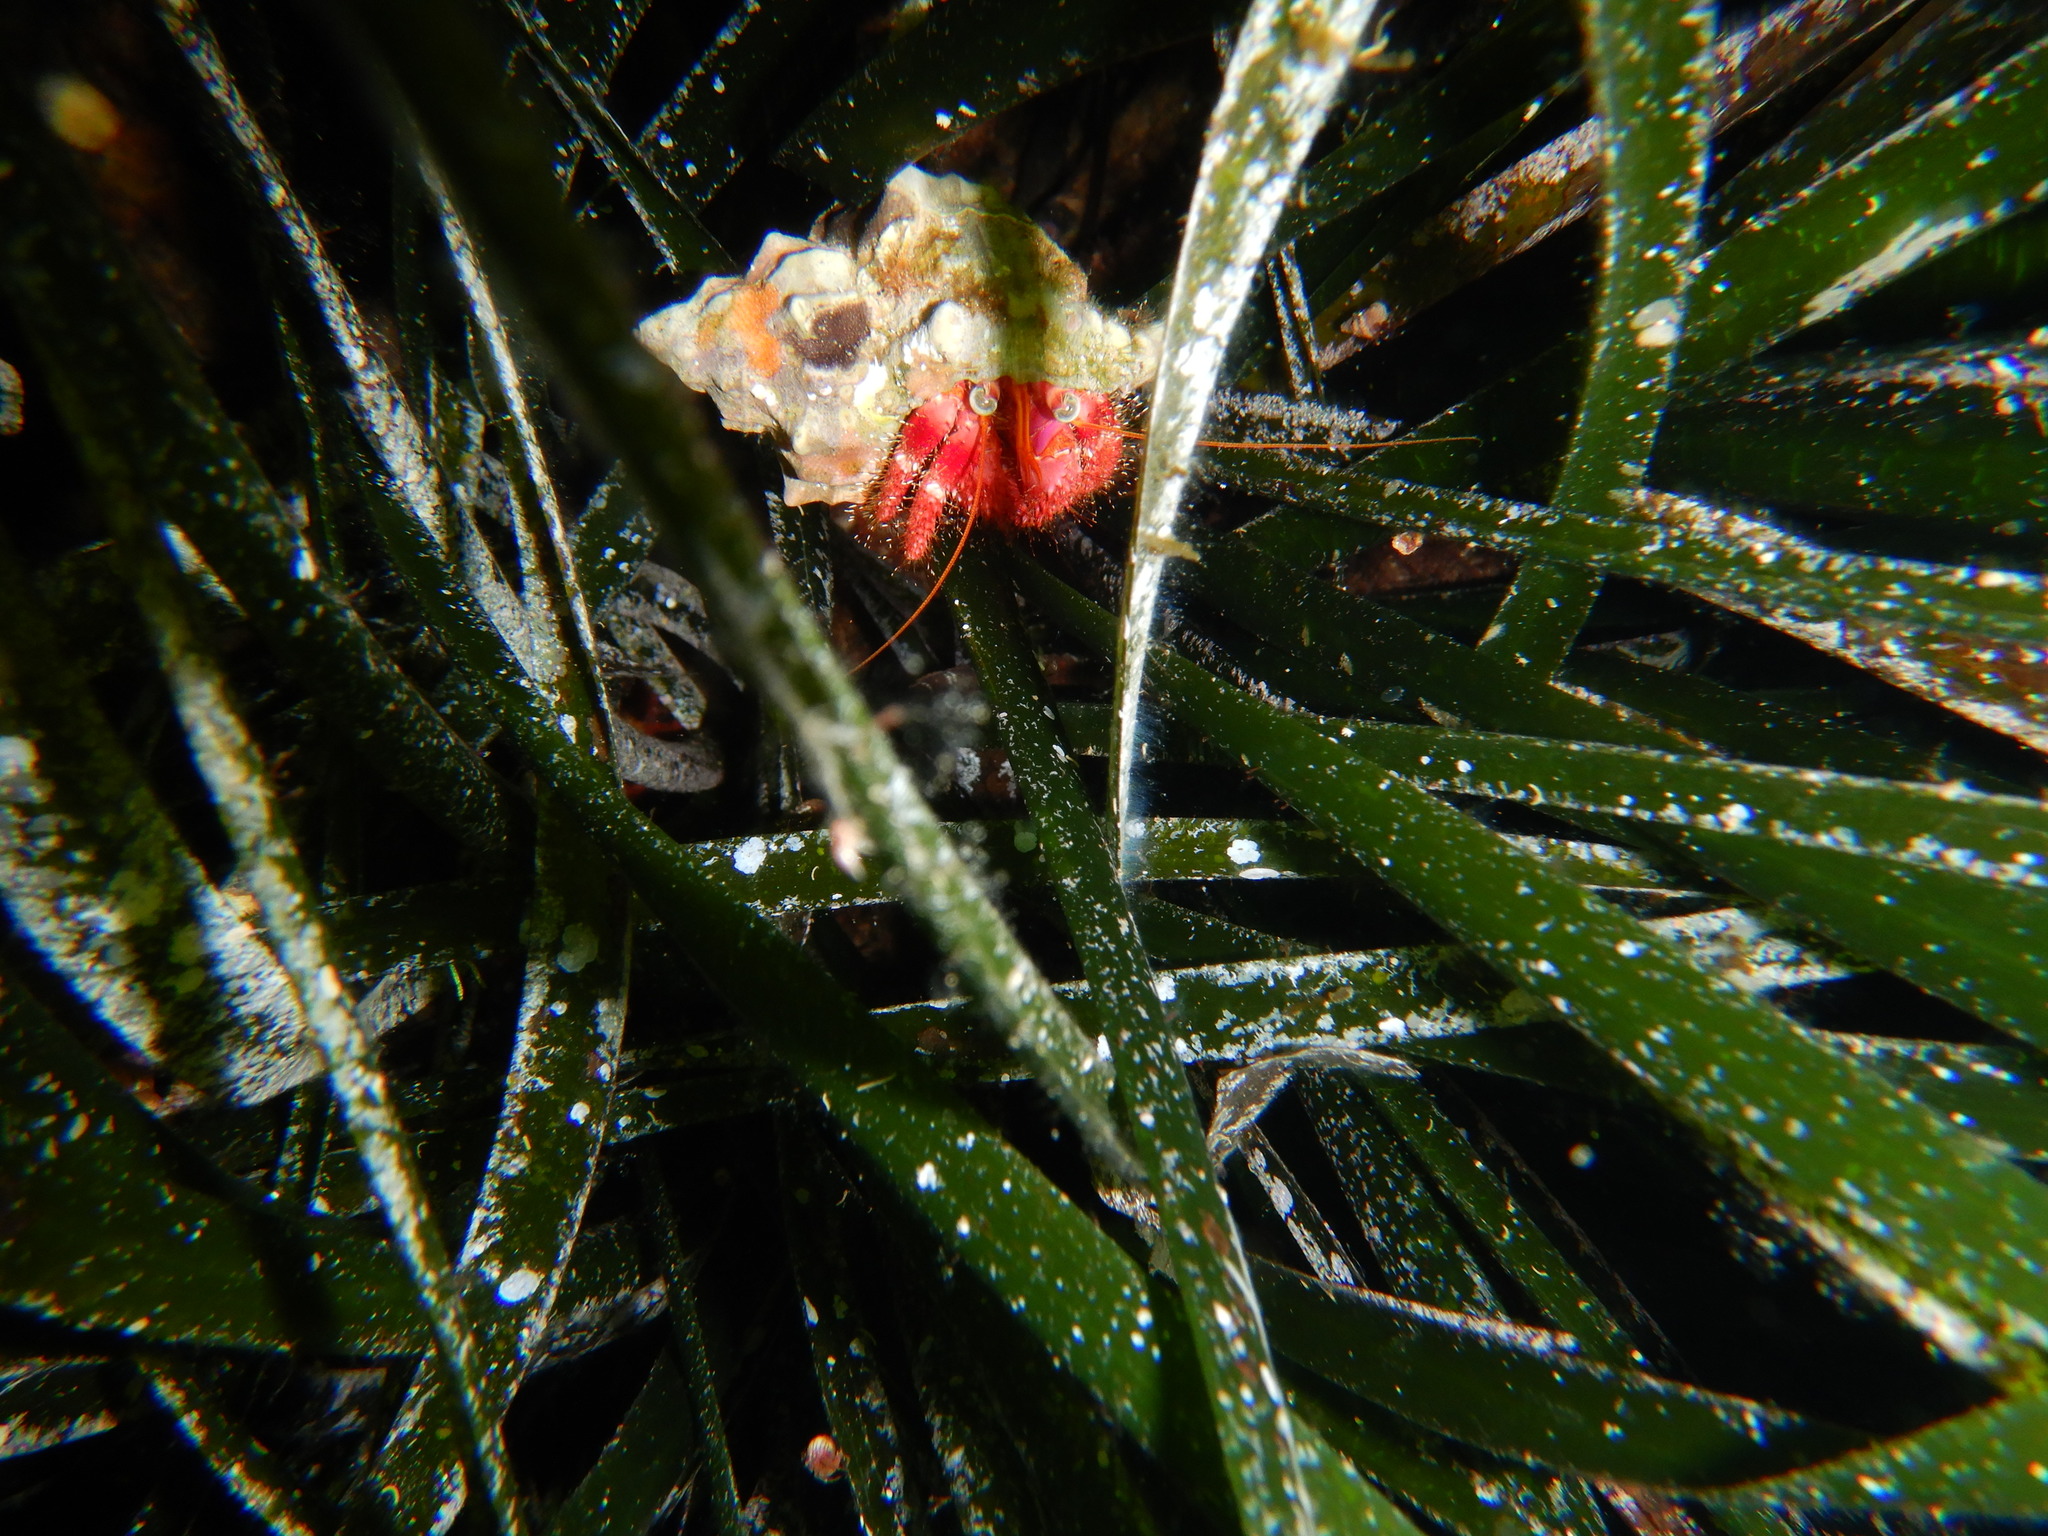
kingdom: Animalia
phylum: Arthropoda
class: Malacostraca
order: Decapoda
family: Diogenidae
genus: Dardanus
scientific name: Dardanus calidus
